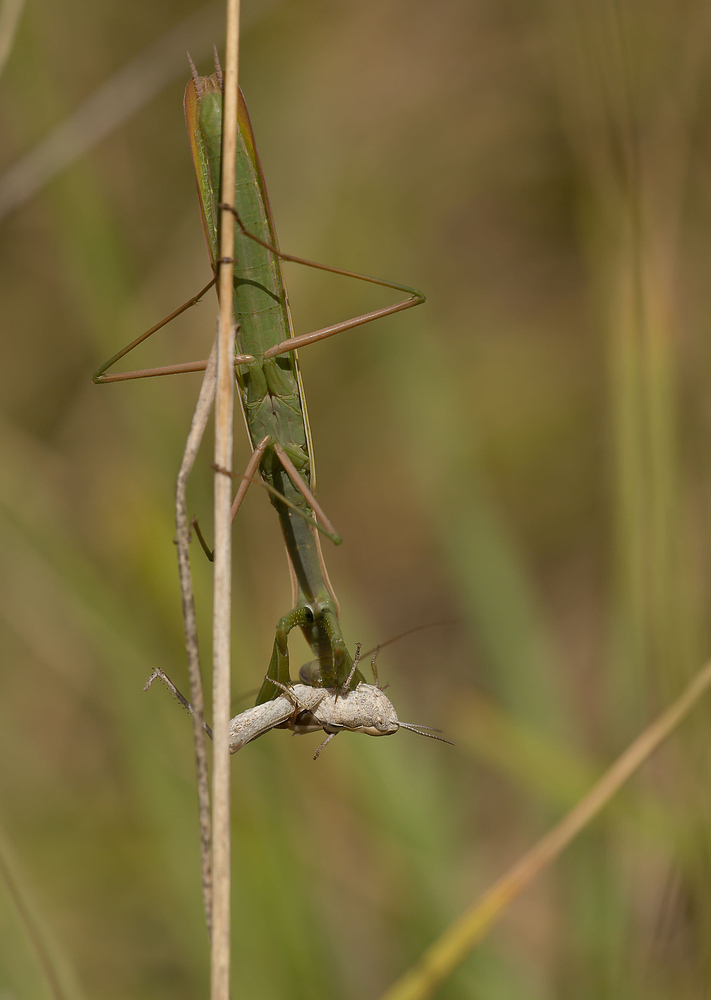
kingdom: Animalia
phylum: Arthropoda
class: Insecta
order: Mantodea
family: Mantidae
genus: Mantis
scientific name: Mantis religiosa
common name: Praying mantis
